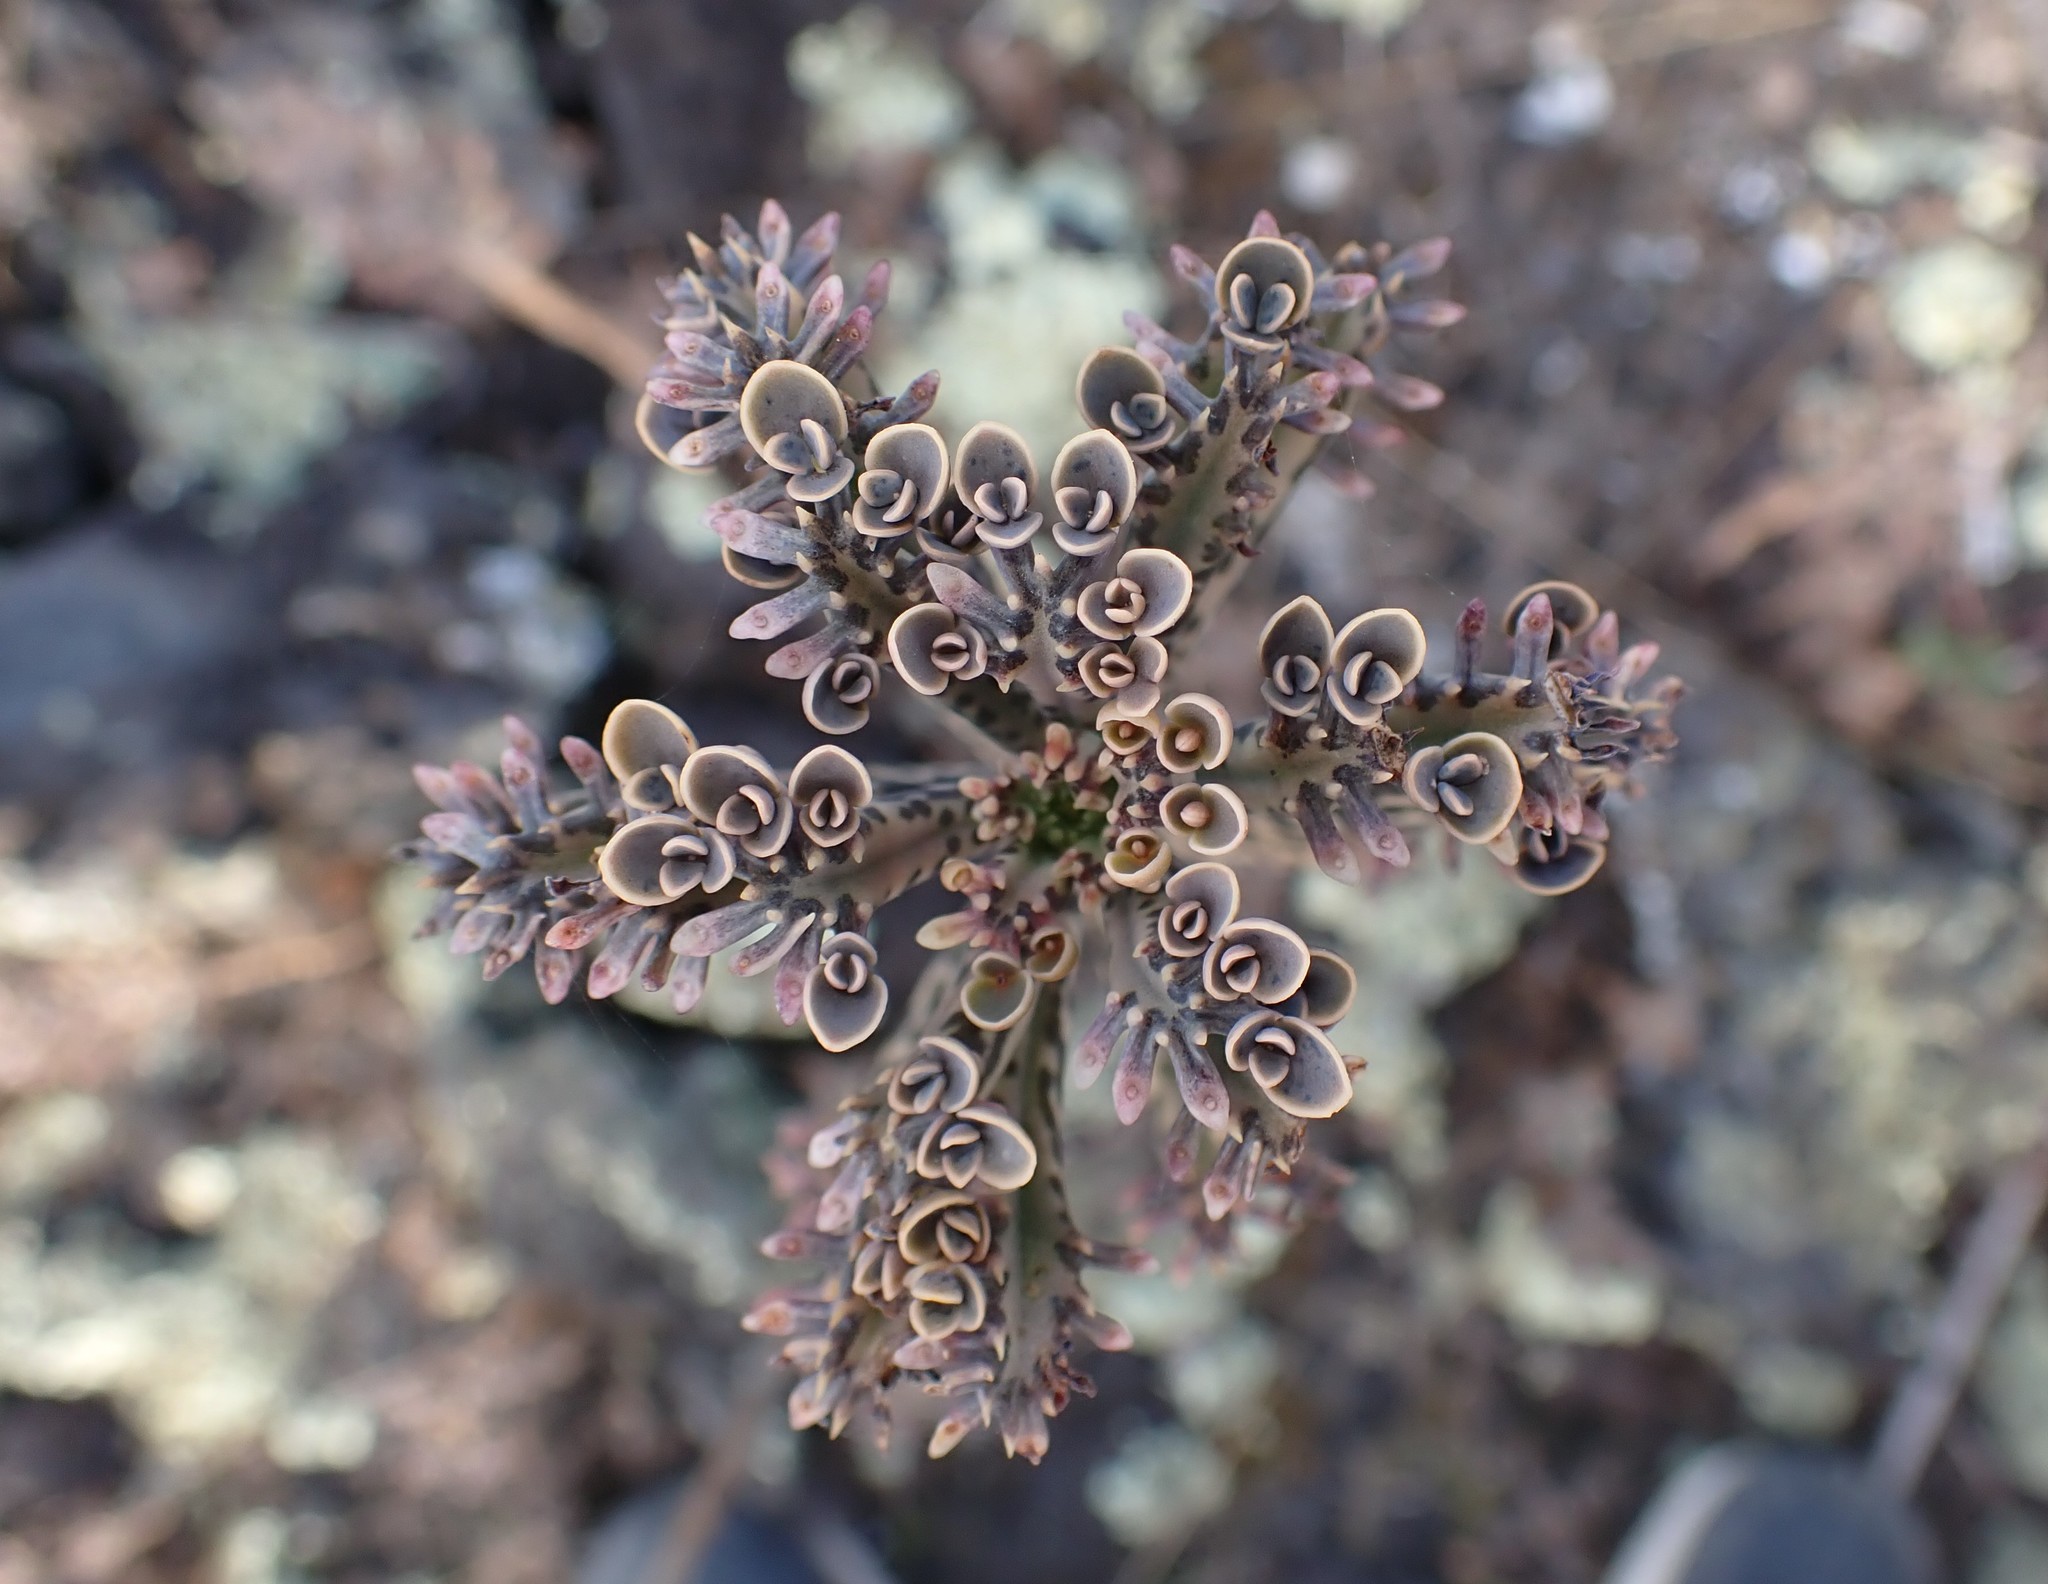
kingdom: Plantae
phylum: Tracheophyta
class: Magnoliopsida
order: Saxifragales
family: Crassulaceae
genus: Kalanchoe
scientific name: Kalanchoe delagoensis
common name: Chandelier plant
